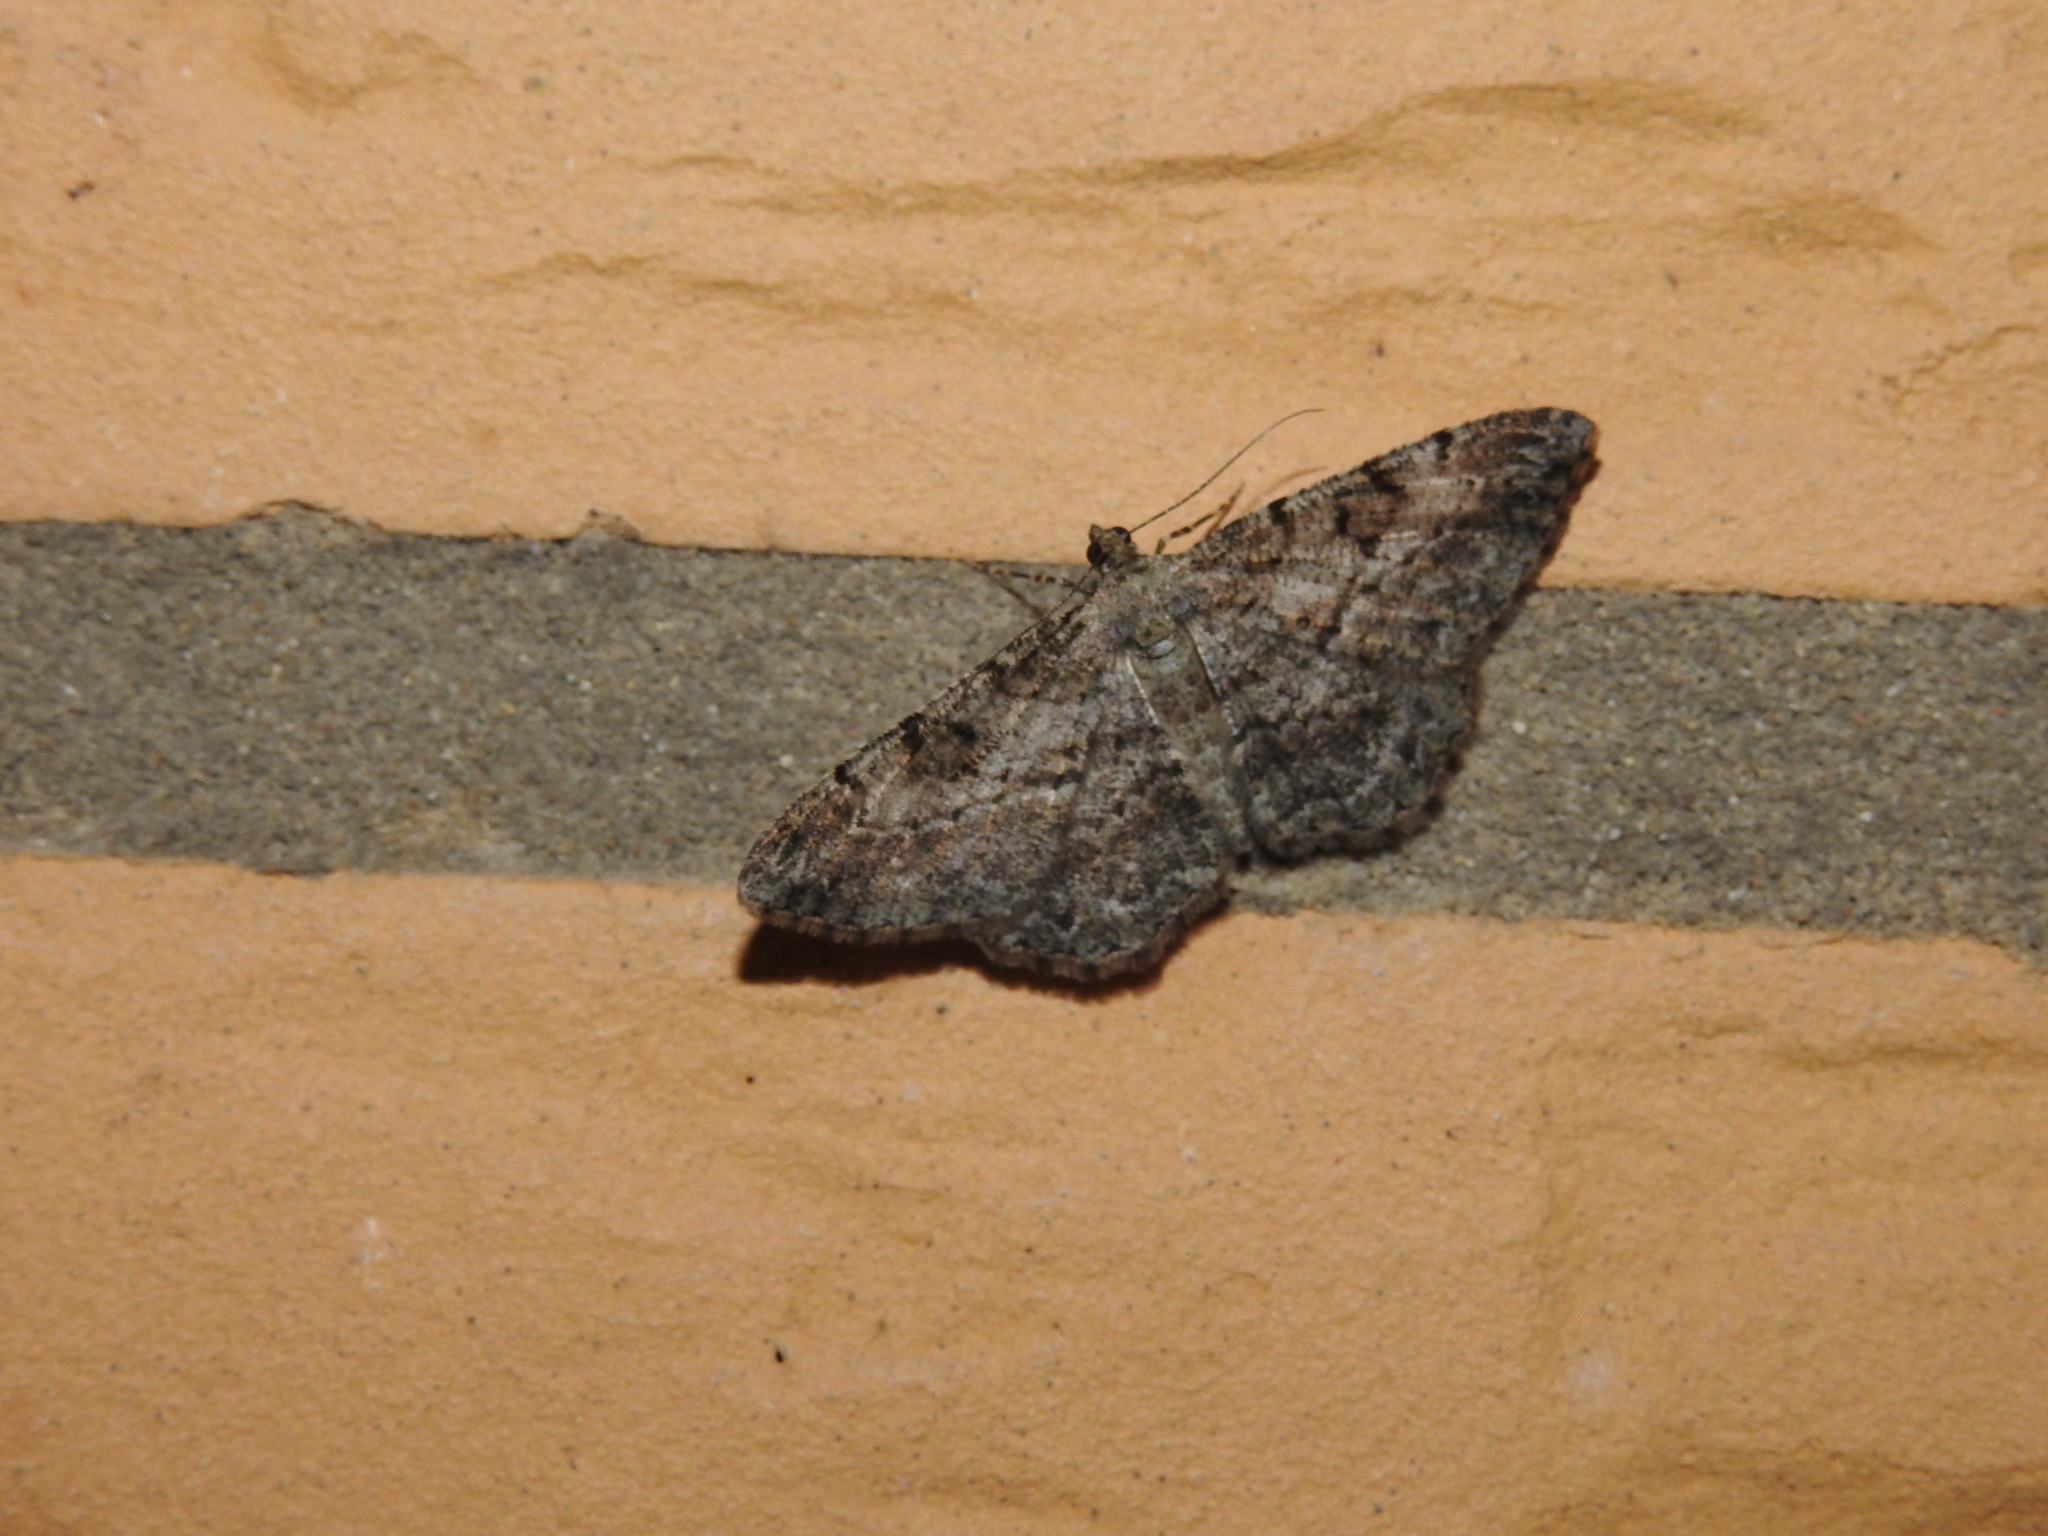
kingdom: Animalia
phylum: Arthropoda
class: Insecta
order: Lepidoptera
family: Geometridae
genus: Peribatodes
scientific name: Peribatodes rhomboidaria
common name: Willow beauty
